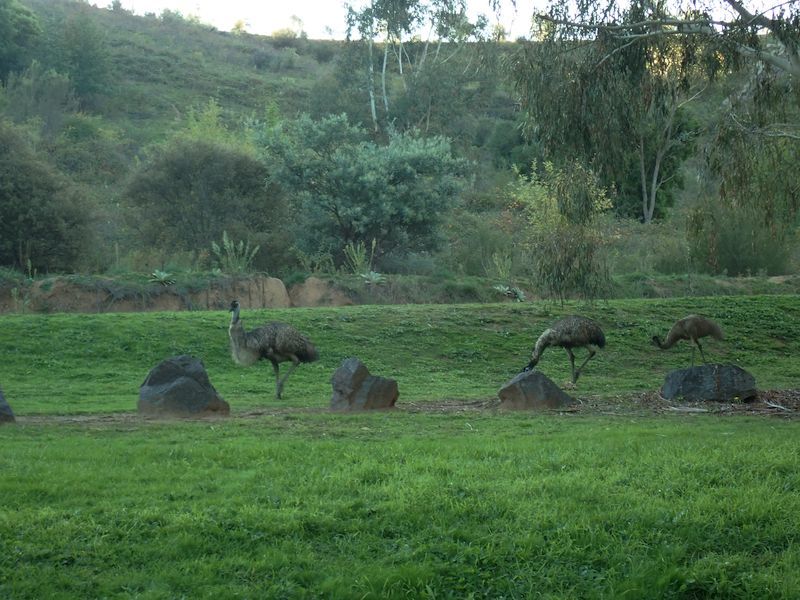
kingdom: Animalia
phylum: Chordata
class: Aves
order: Casuariiformes
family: Dromaiidae
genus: Dromaius
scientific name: Dromaius novaehollandiae
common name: Emu
